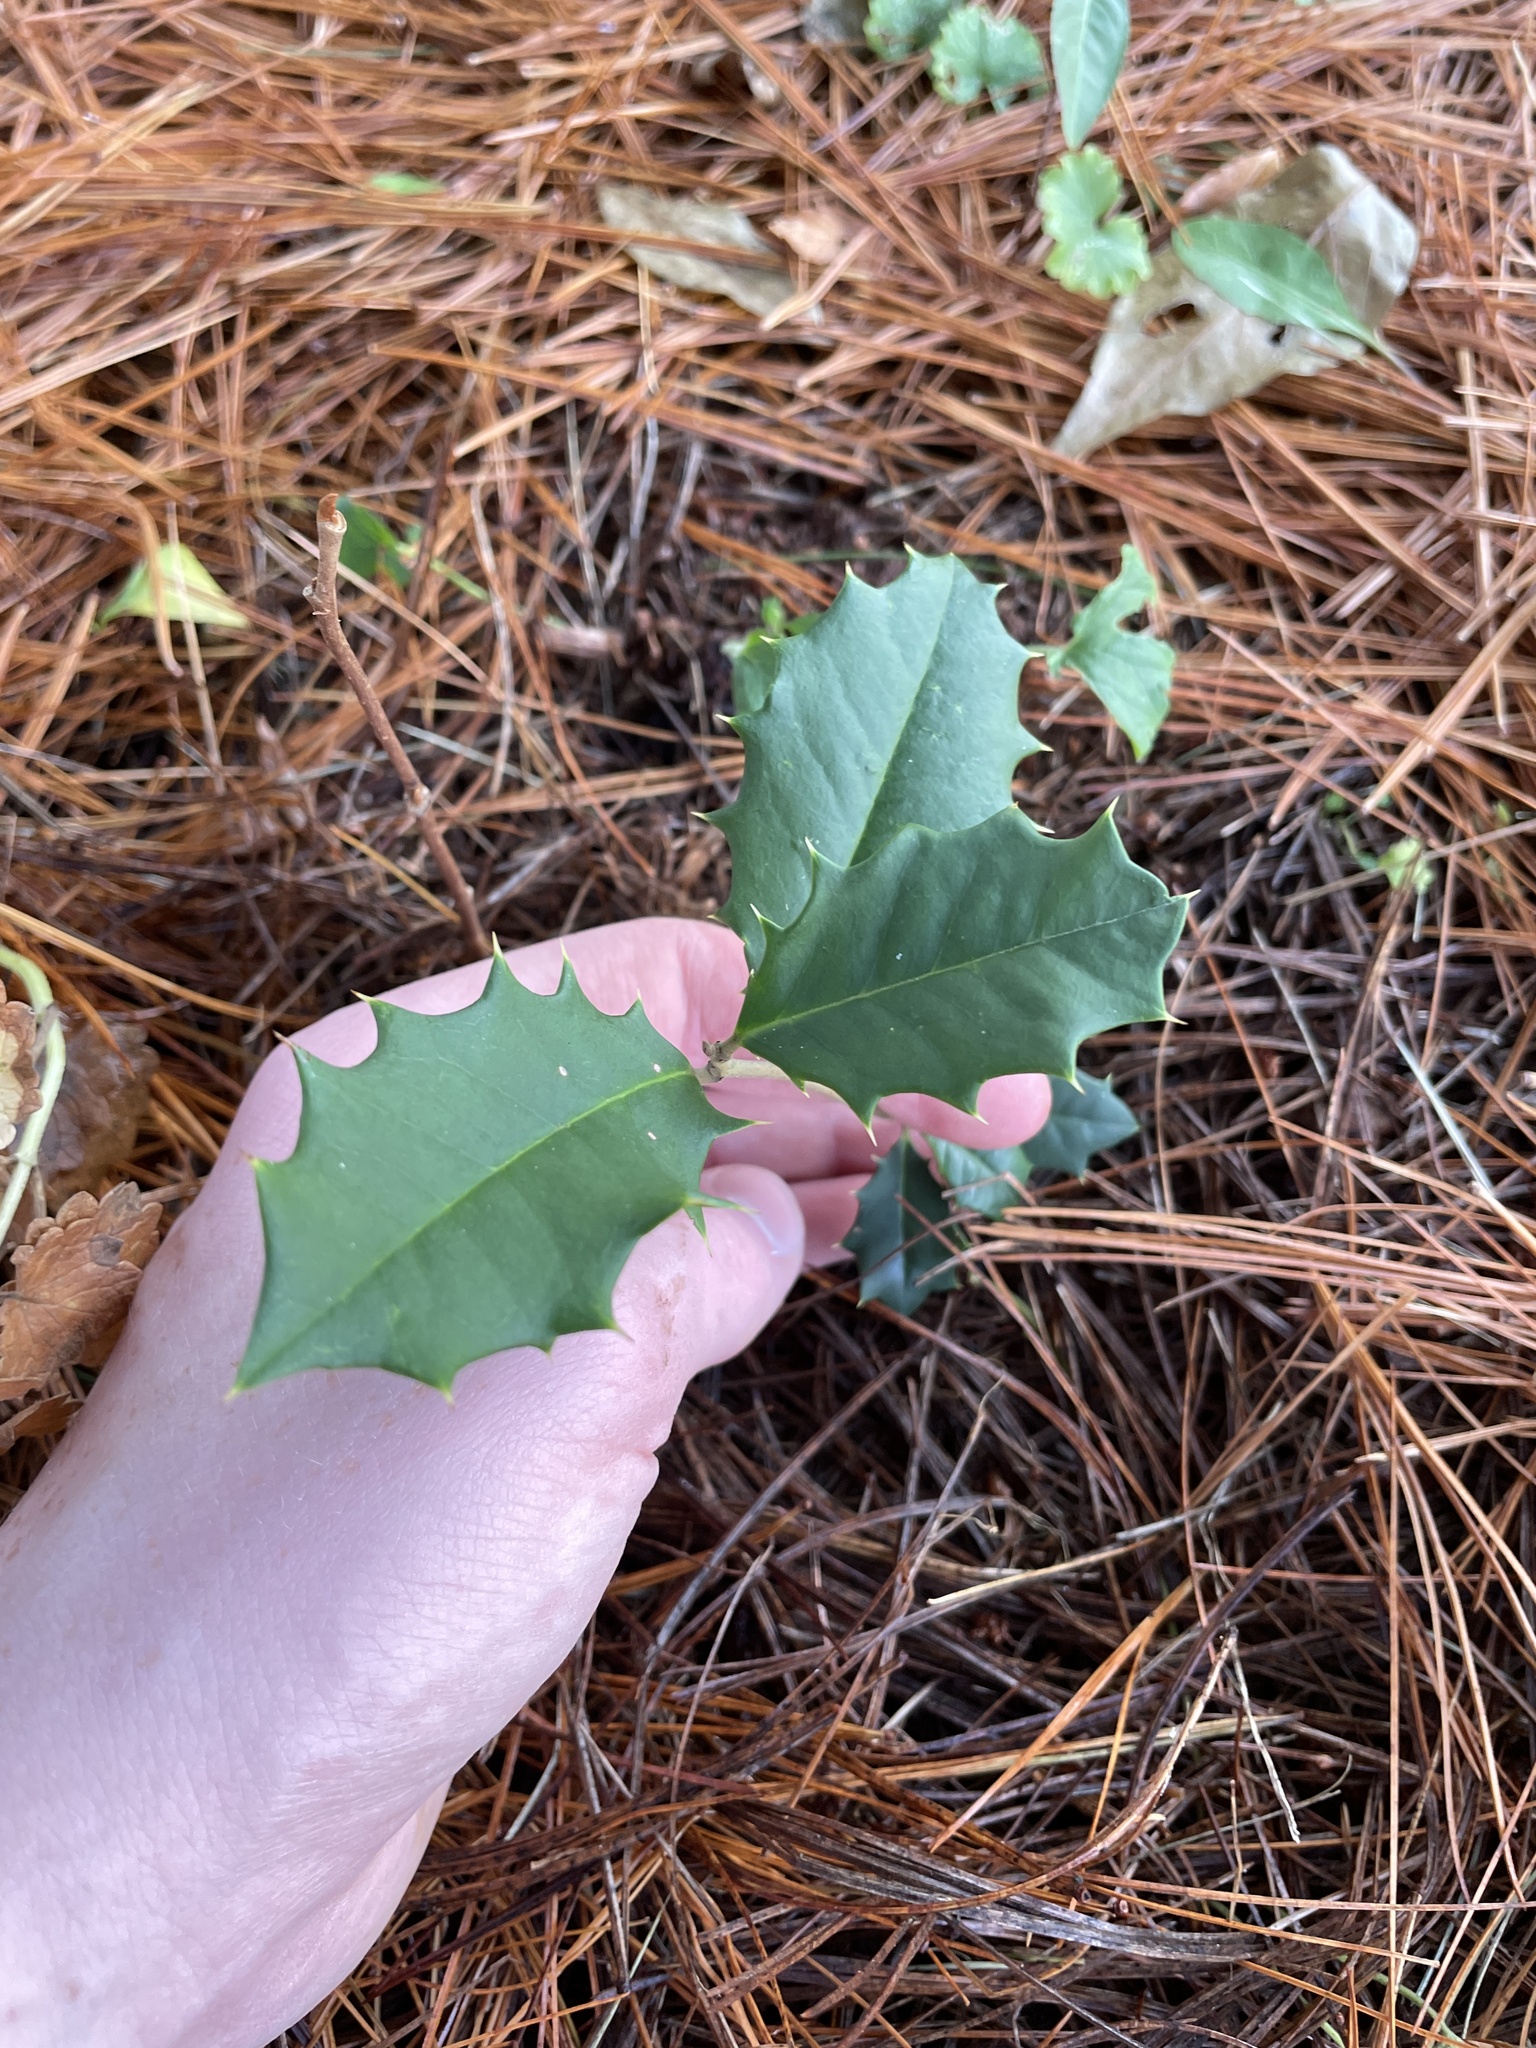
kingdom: Plantae
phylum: Tracheophyta
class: Magnoliopsida
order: Aquifoliales
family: Aquifoliaceae
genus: Ilex
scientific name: Ilex opaca
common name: American holly
